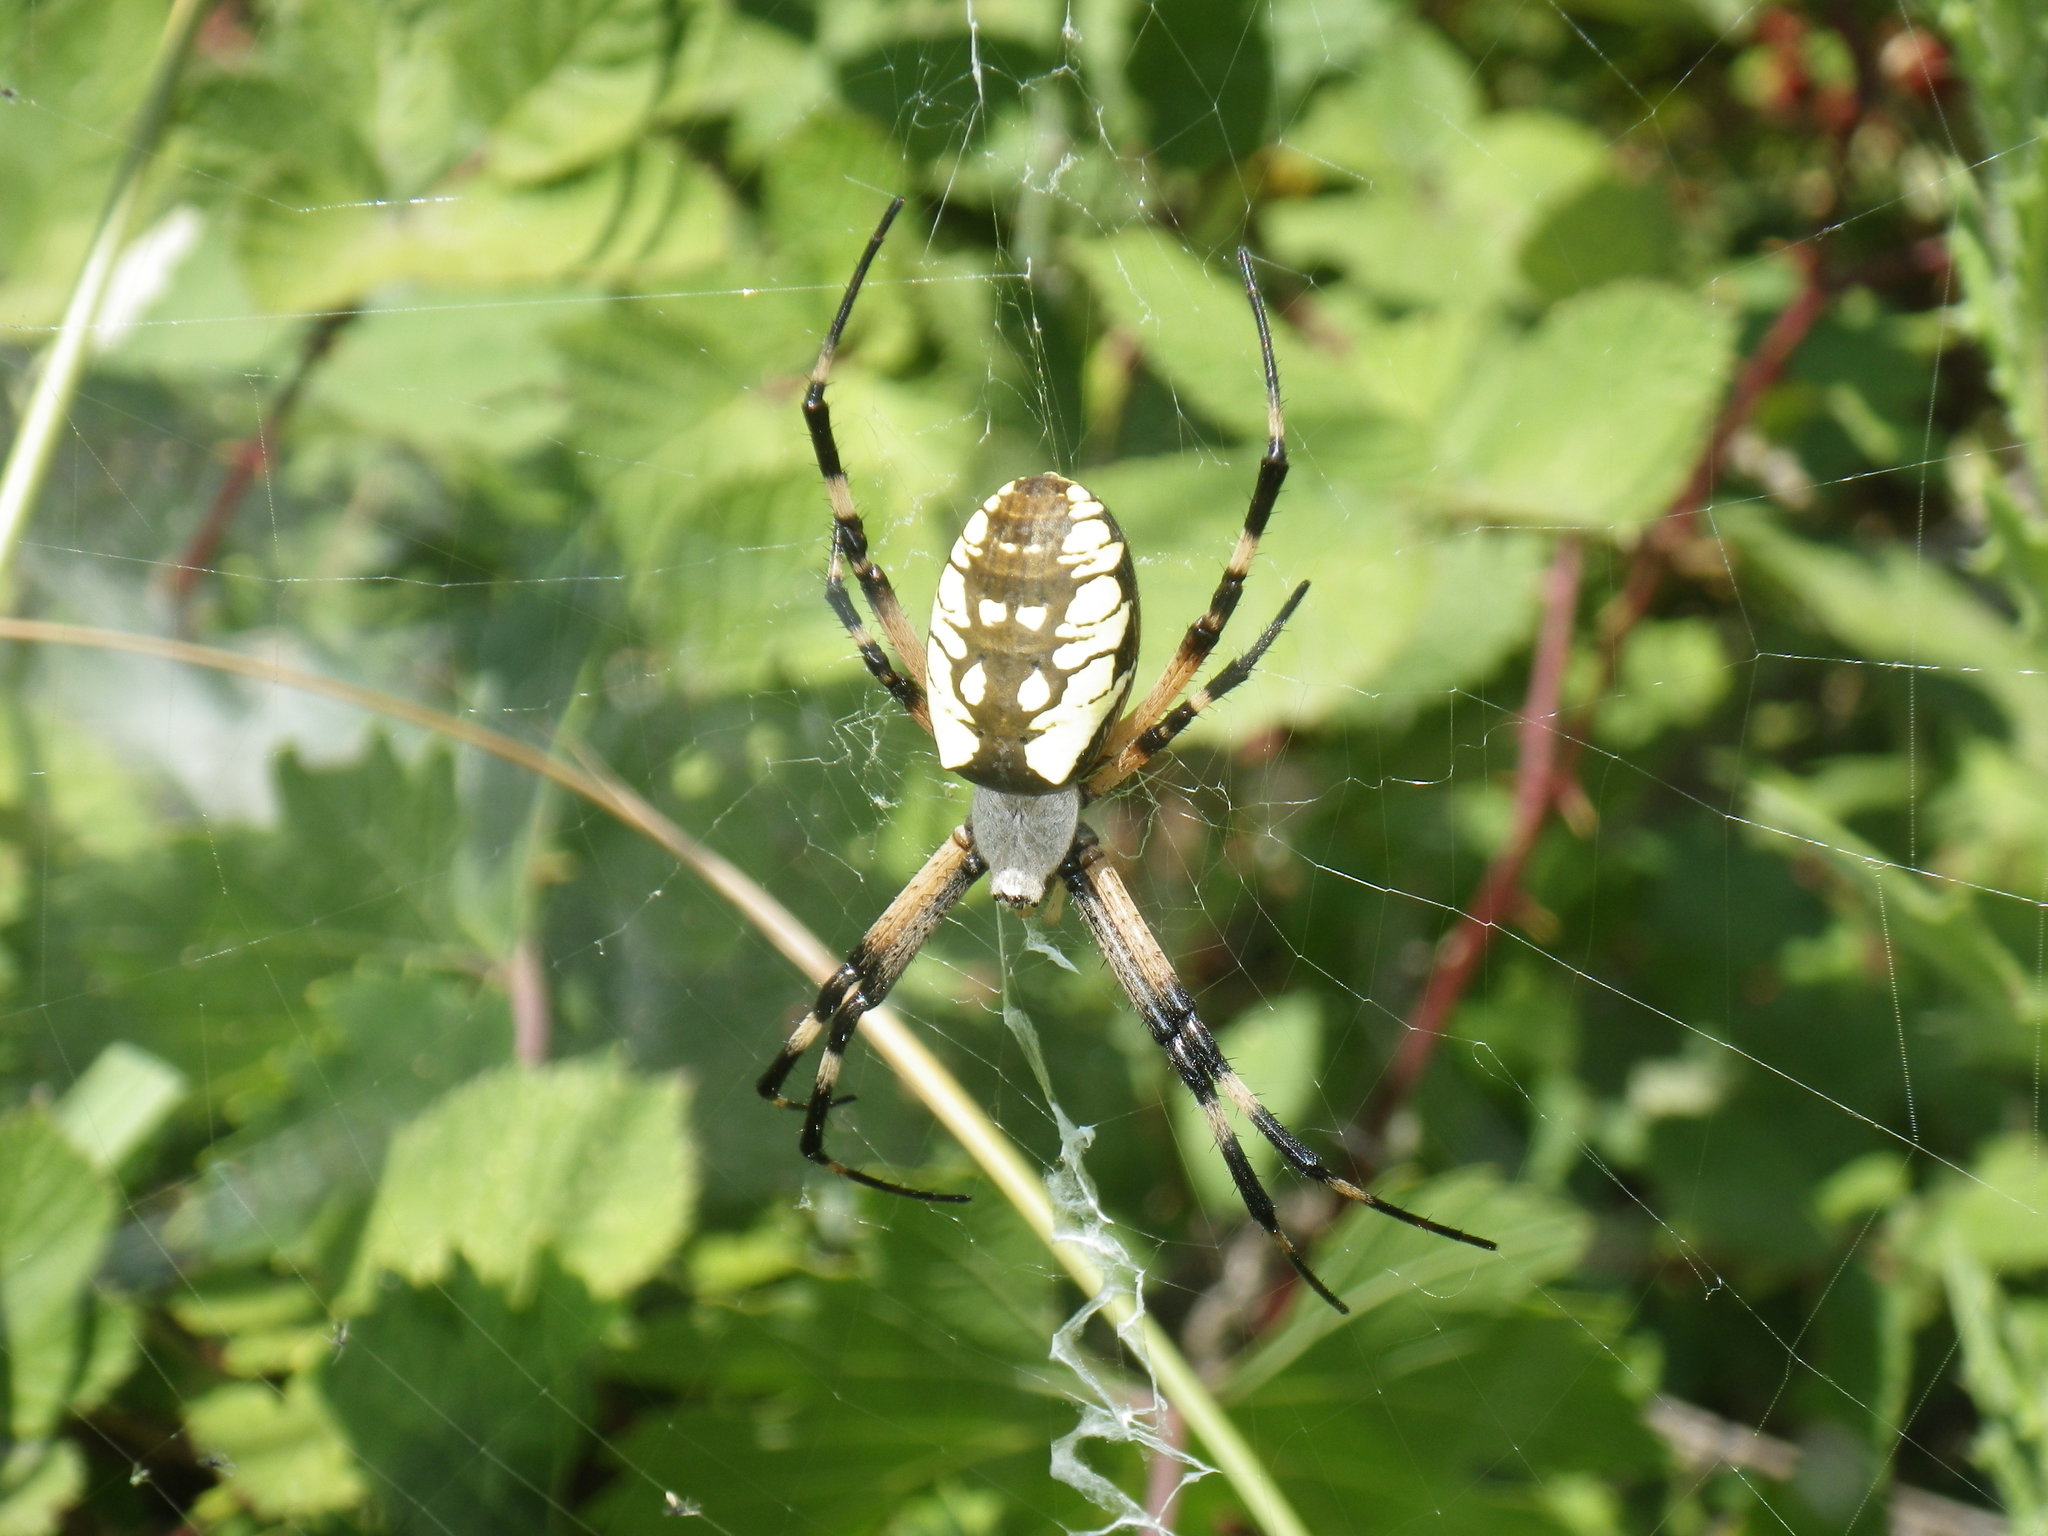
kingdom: Animalia
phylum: Arthropoda
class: Arachnida
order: Araneae
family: Araneidae
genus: Argiope
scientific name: Argiope aurantia
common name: Orb weavers
